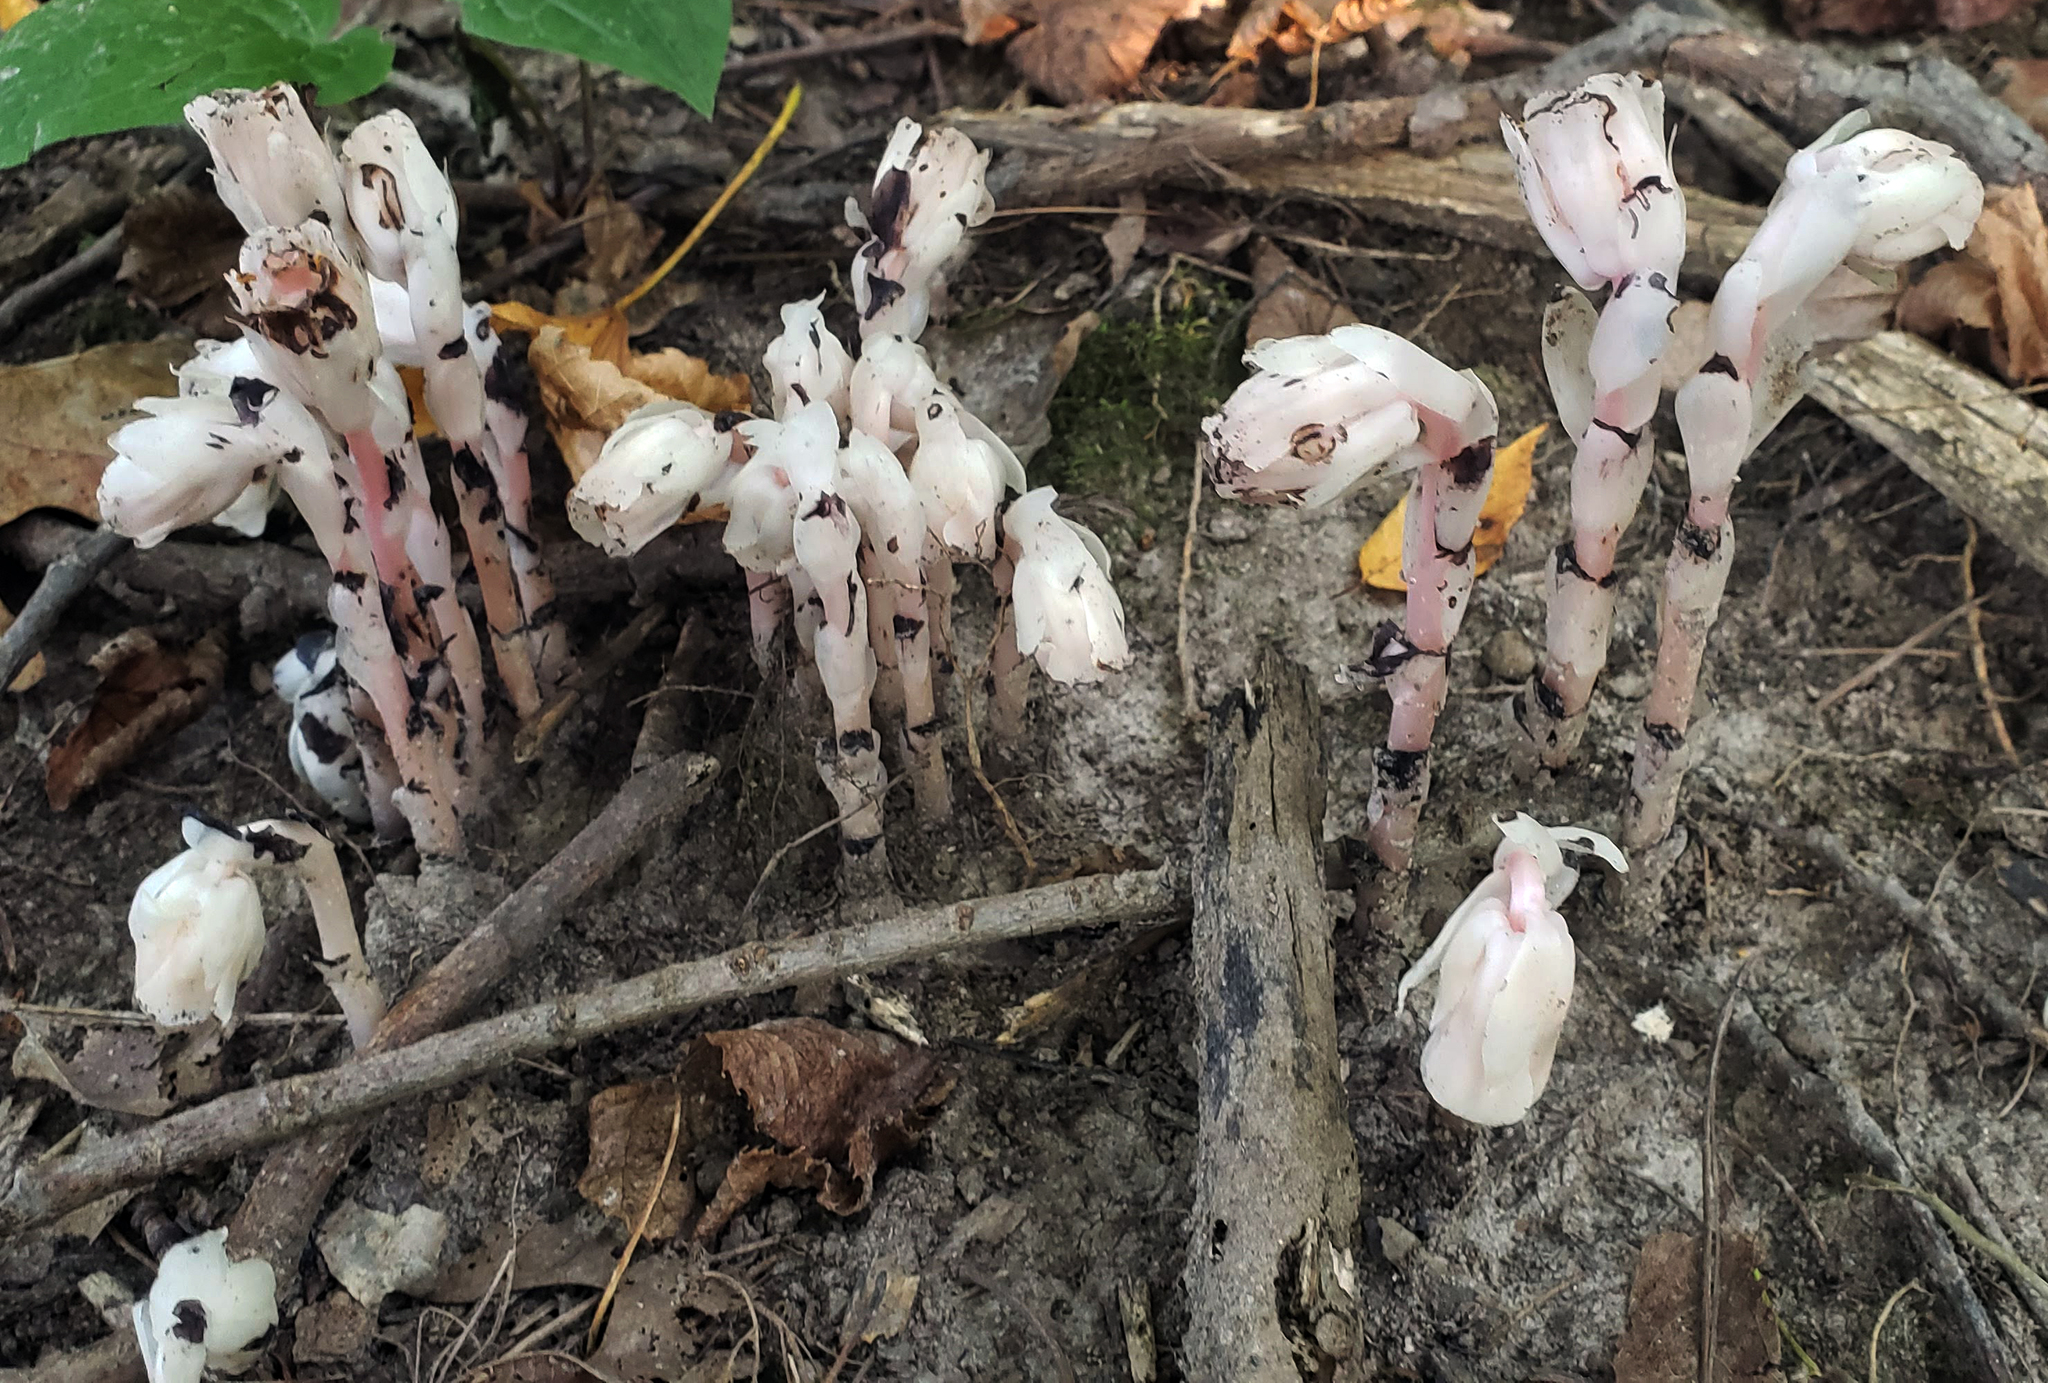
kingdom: Plantae
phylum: Tracheophyta
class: Magnoliopsida
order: Ericales
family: Ericaceae
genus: Monotropa
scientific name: Monotropa uniflora
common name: Convulsion root
